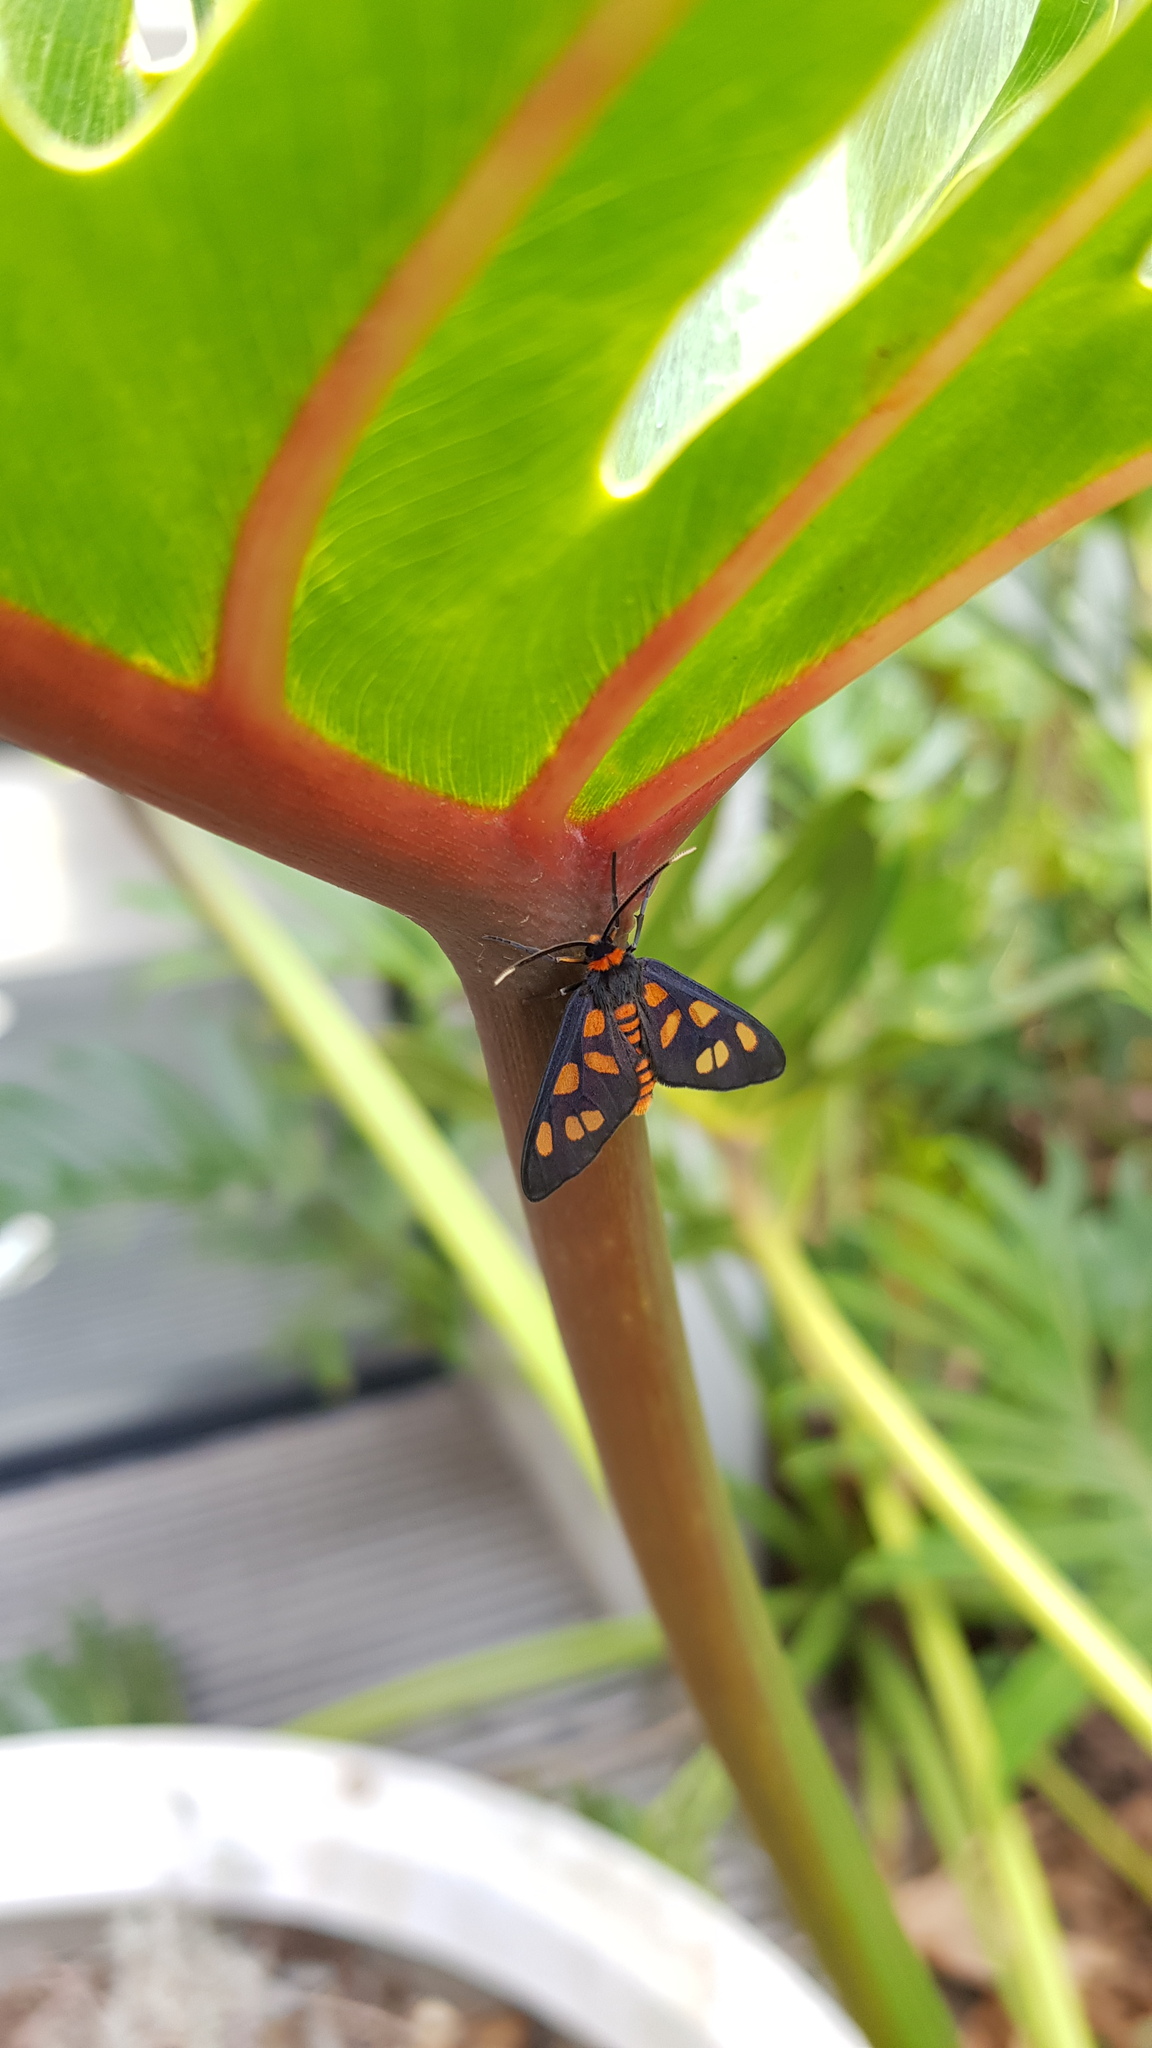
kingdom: Animalia
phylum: Arthropoda
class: Insecta
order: Lepidoptera
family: Erebidae
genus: Amata
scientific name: Amata nigriceps
